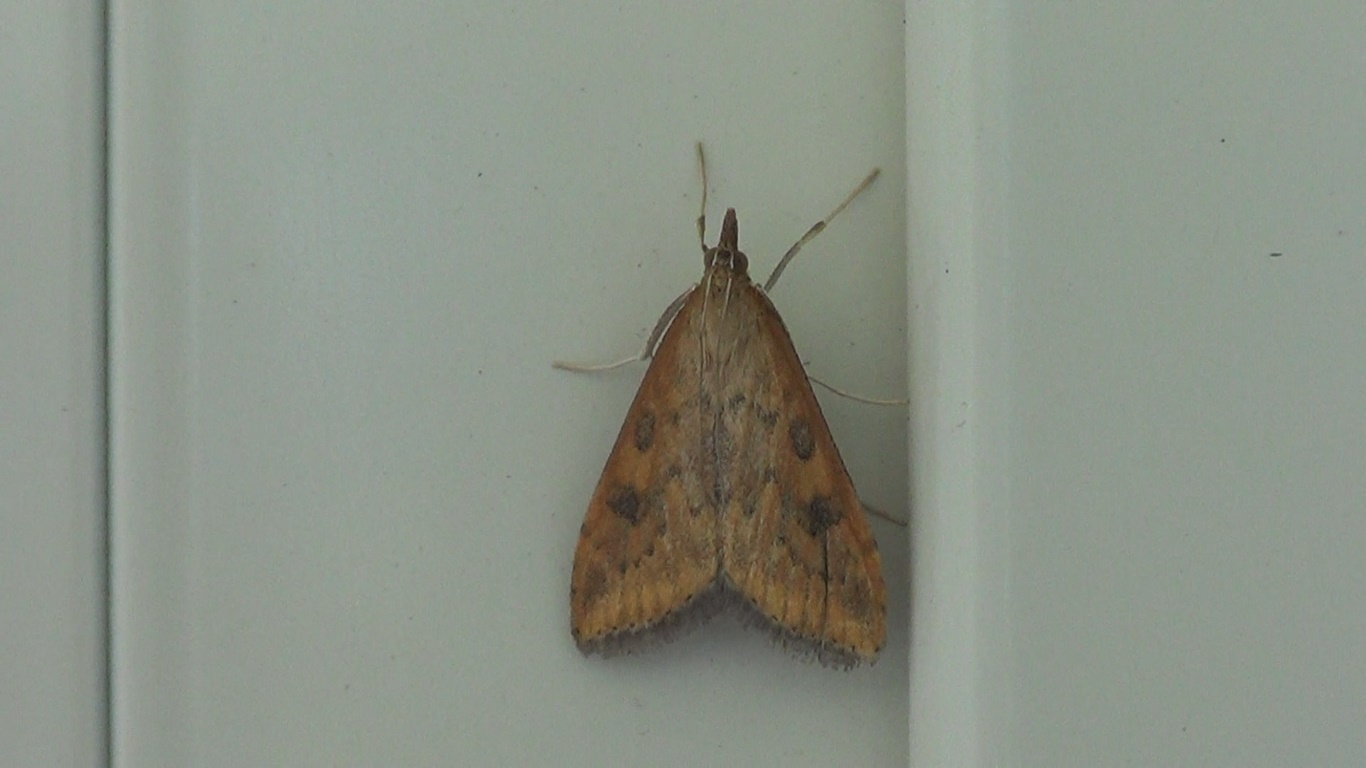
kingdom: Animalia
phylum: Arthropoda
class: Insecta
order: Lepidoptera
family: Crambidae
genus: Udea
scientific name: Udea ferrugalis
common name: Rusty dot
